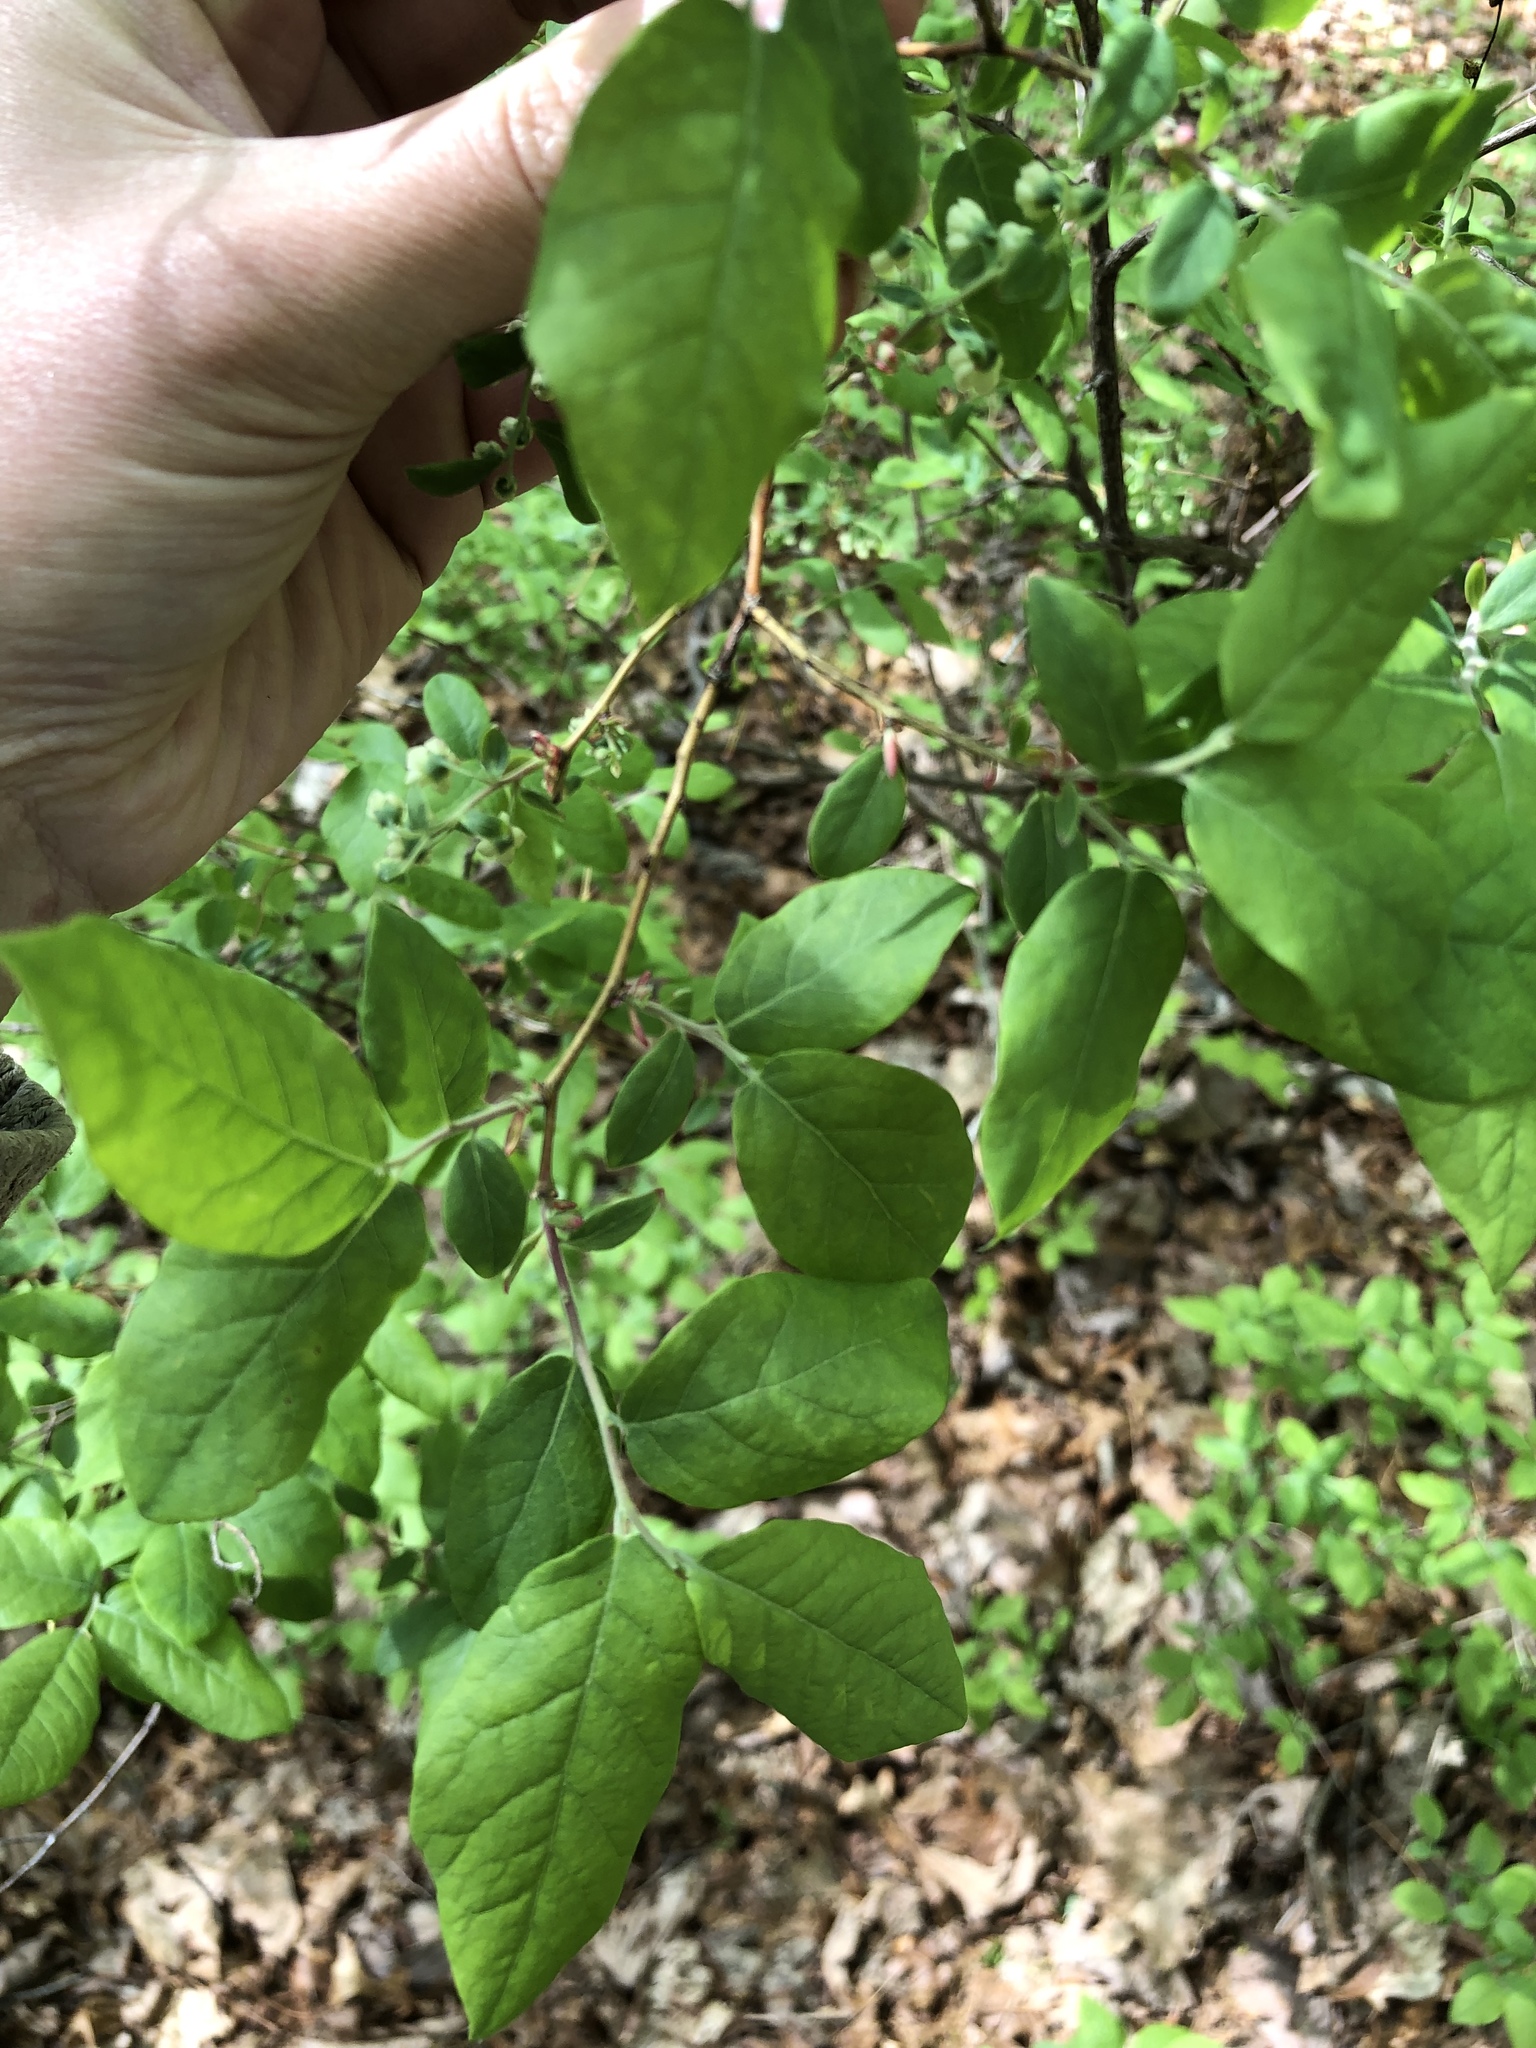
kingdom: Plantae
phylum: Tracheophyta
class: Magnoliopsida
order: Ericales
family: Ericaceae
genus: Vaccinium
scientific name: Vaccinium stamineum
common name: Deerberry
